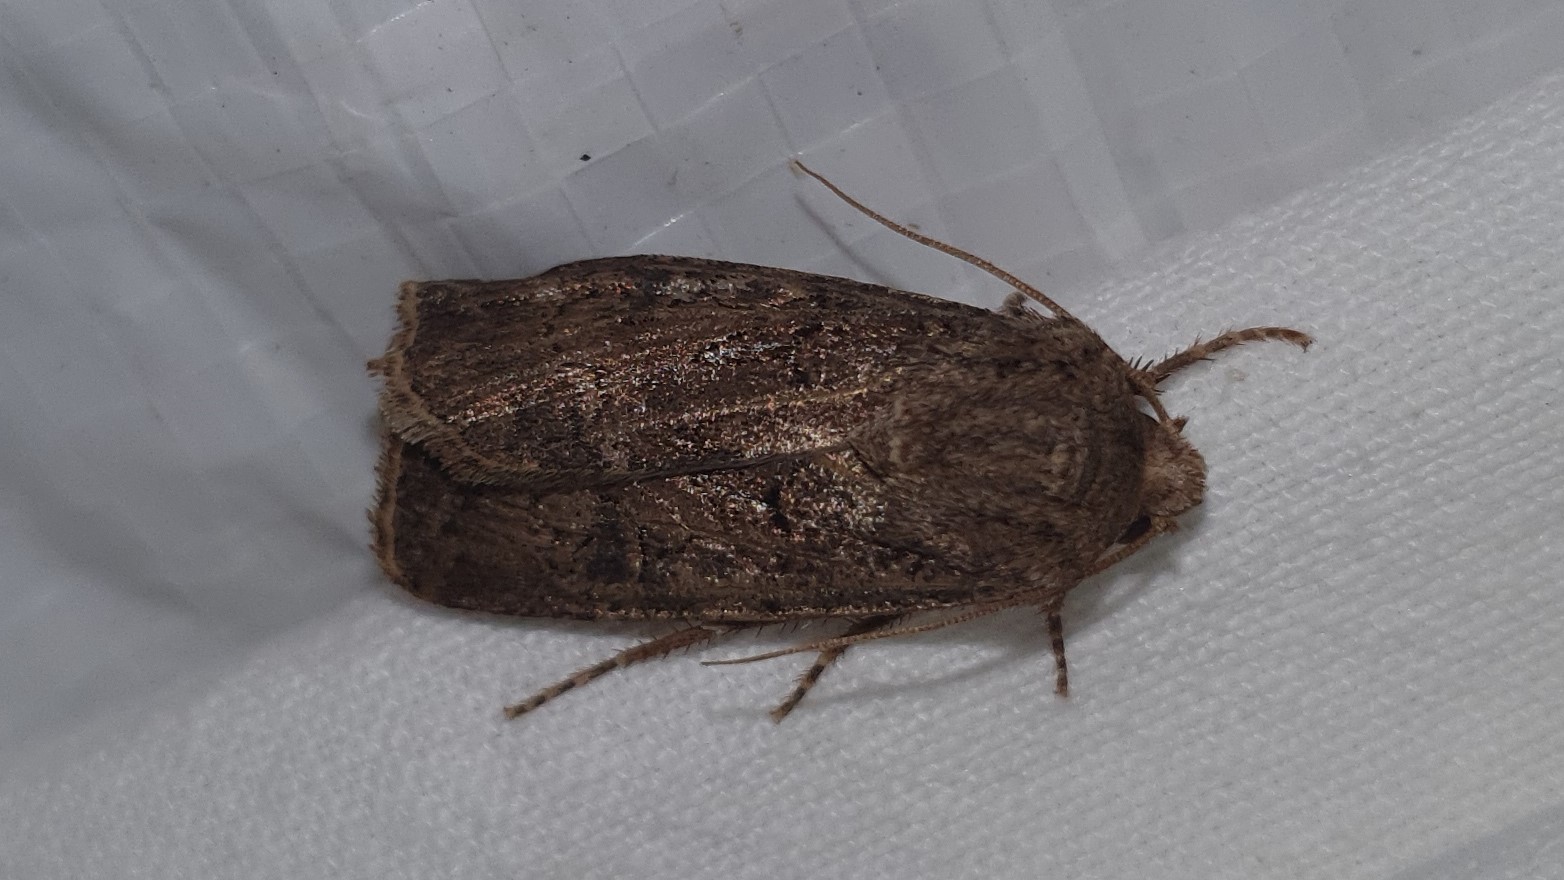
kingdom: Animalia
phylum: Arthropoda
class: Insecta
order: Lepidoptera
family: Noctuidae
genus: Agrotis
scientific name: Agrotis segetum
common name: Turnip moth
